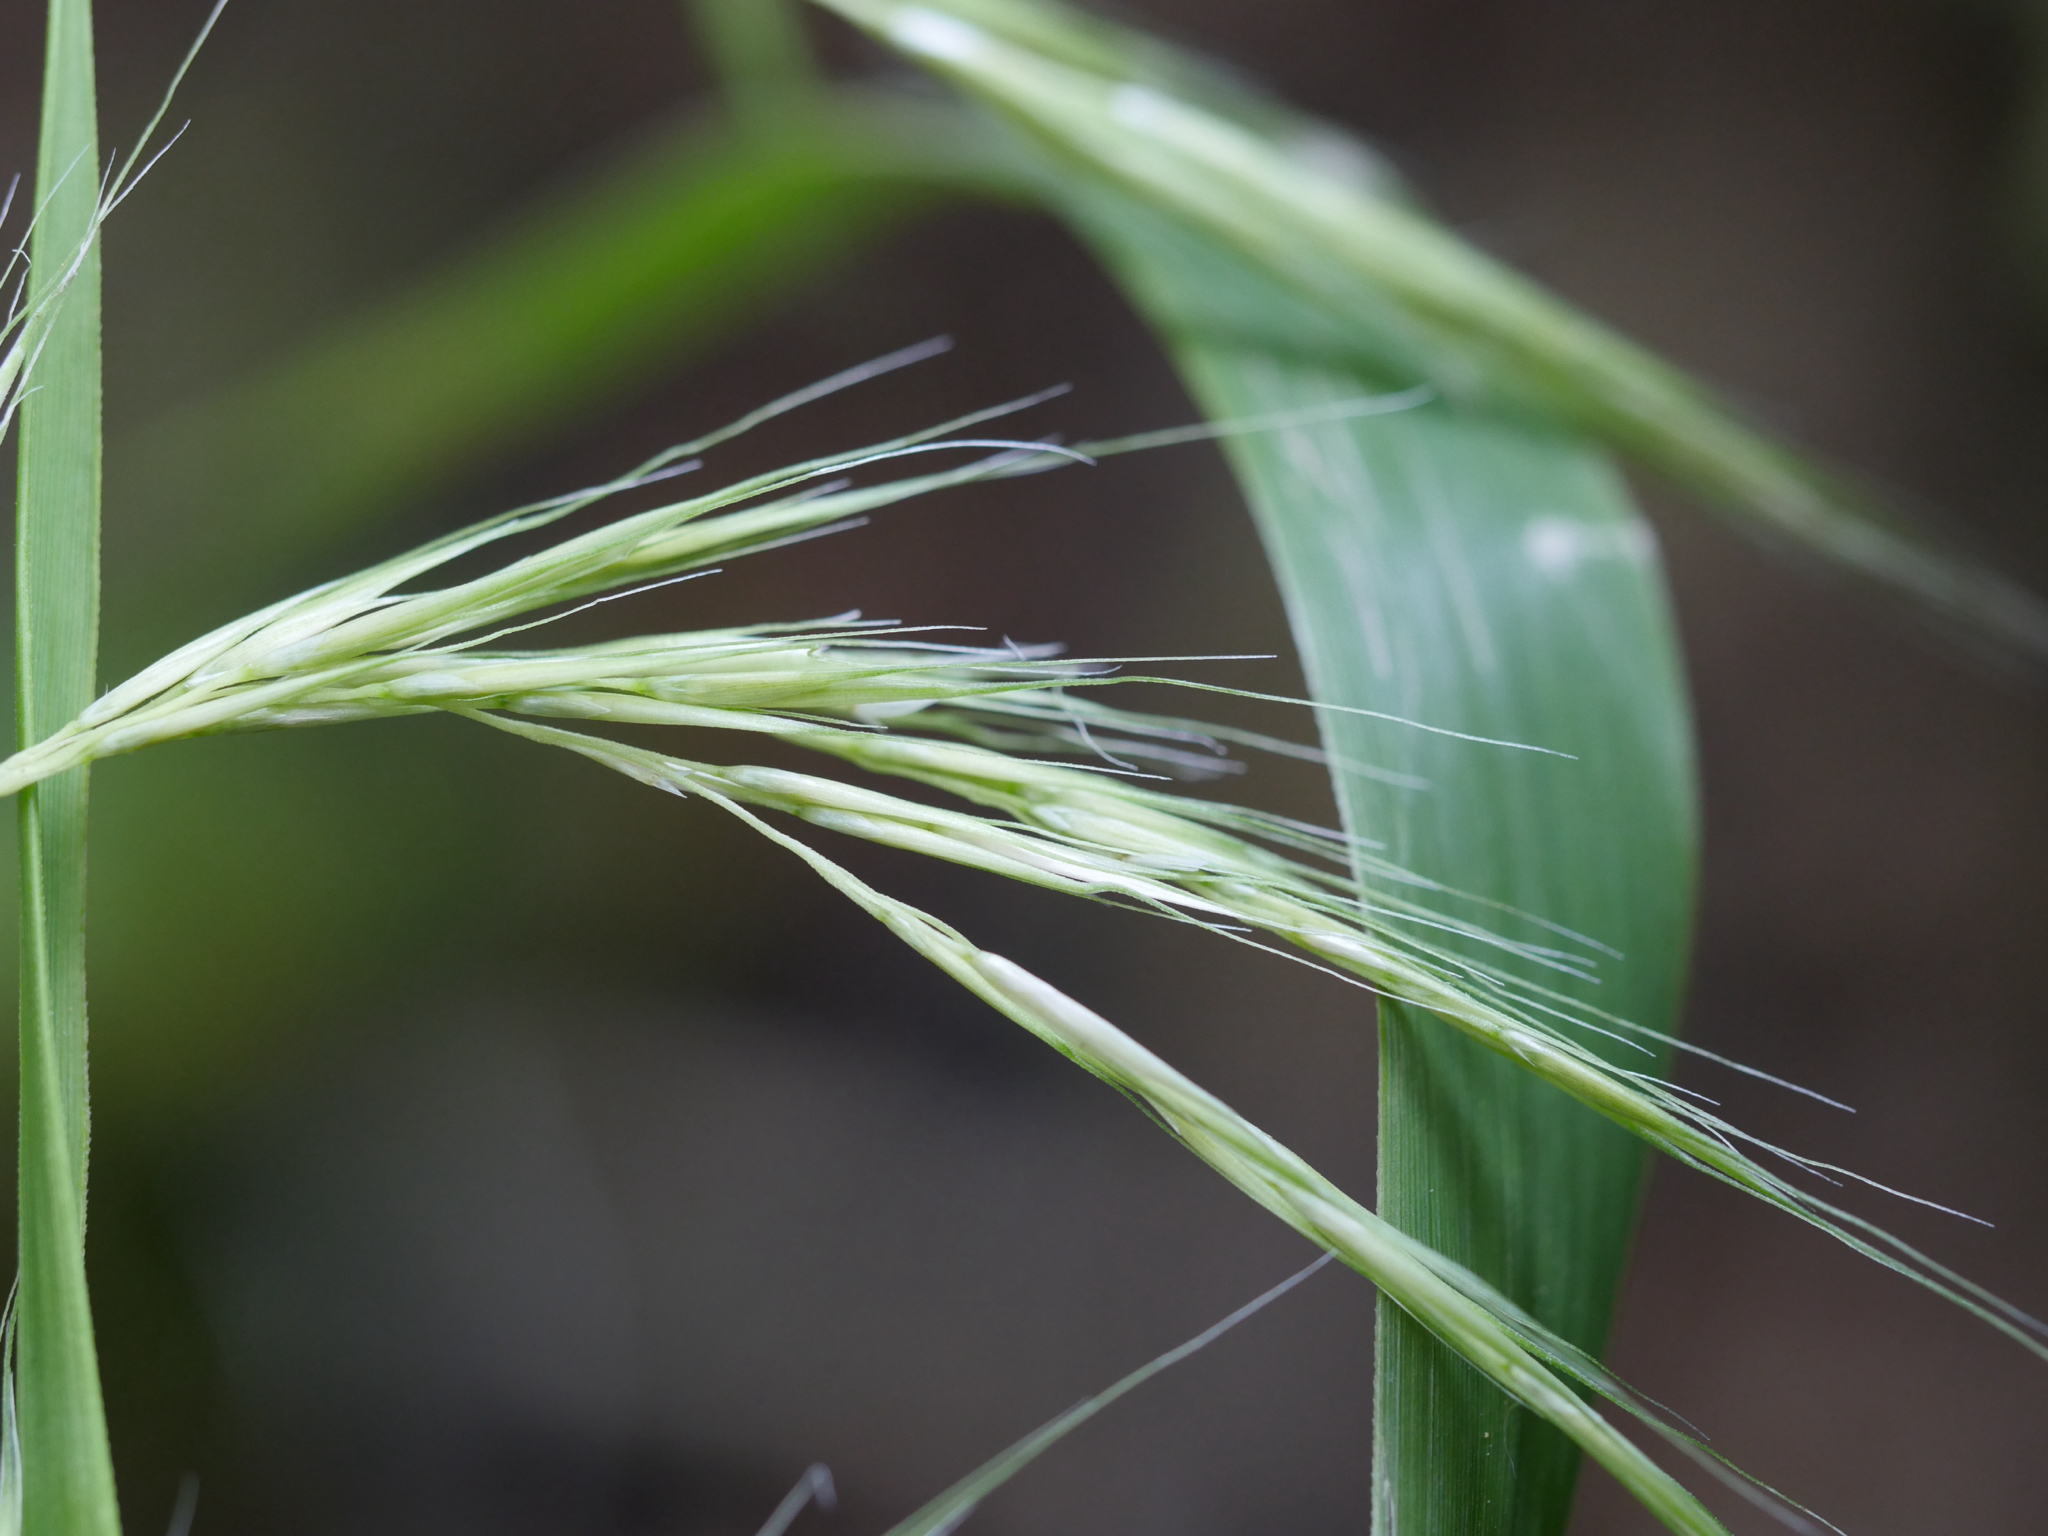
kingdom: Plantae
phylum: Tracheophyta
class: Liliopsida
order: Poales
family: Poaceae
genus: Ehrharta
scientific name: Ehrharta diplax
